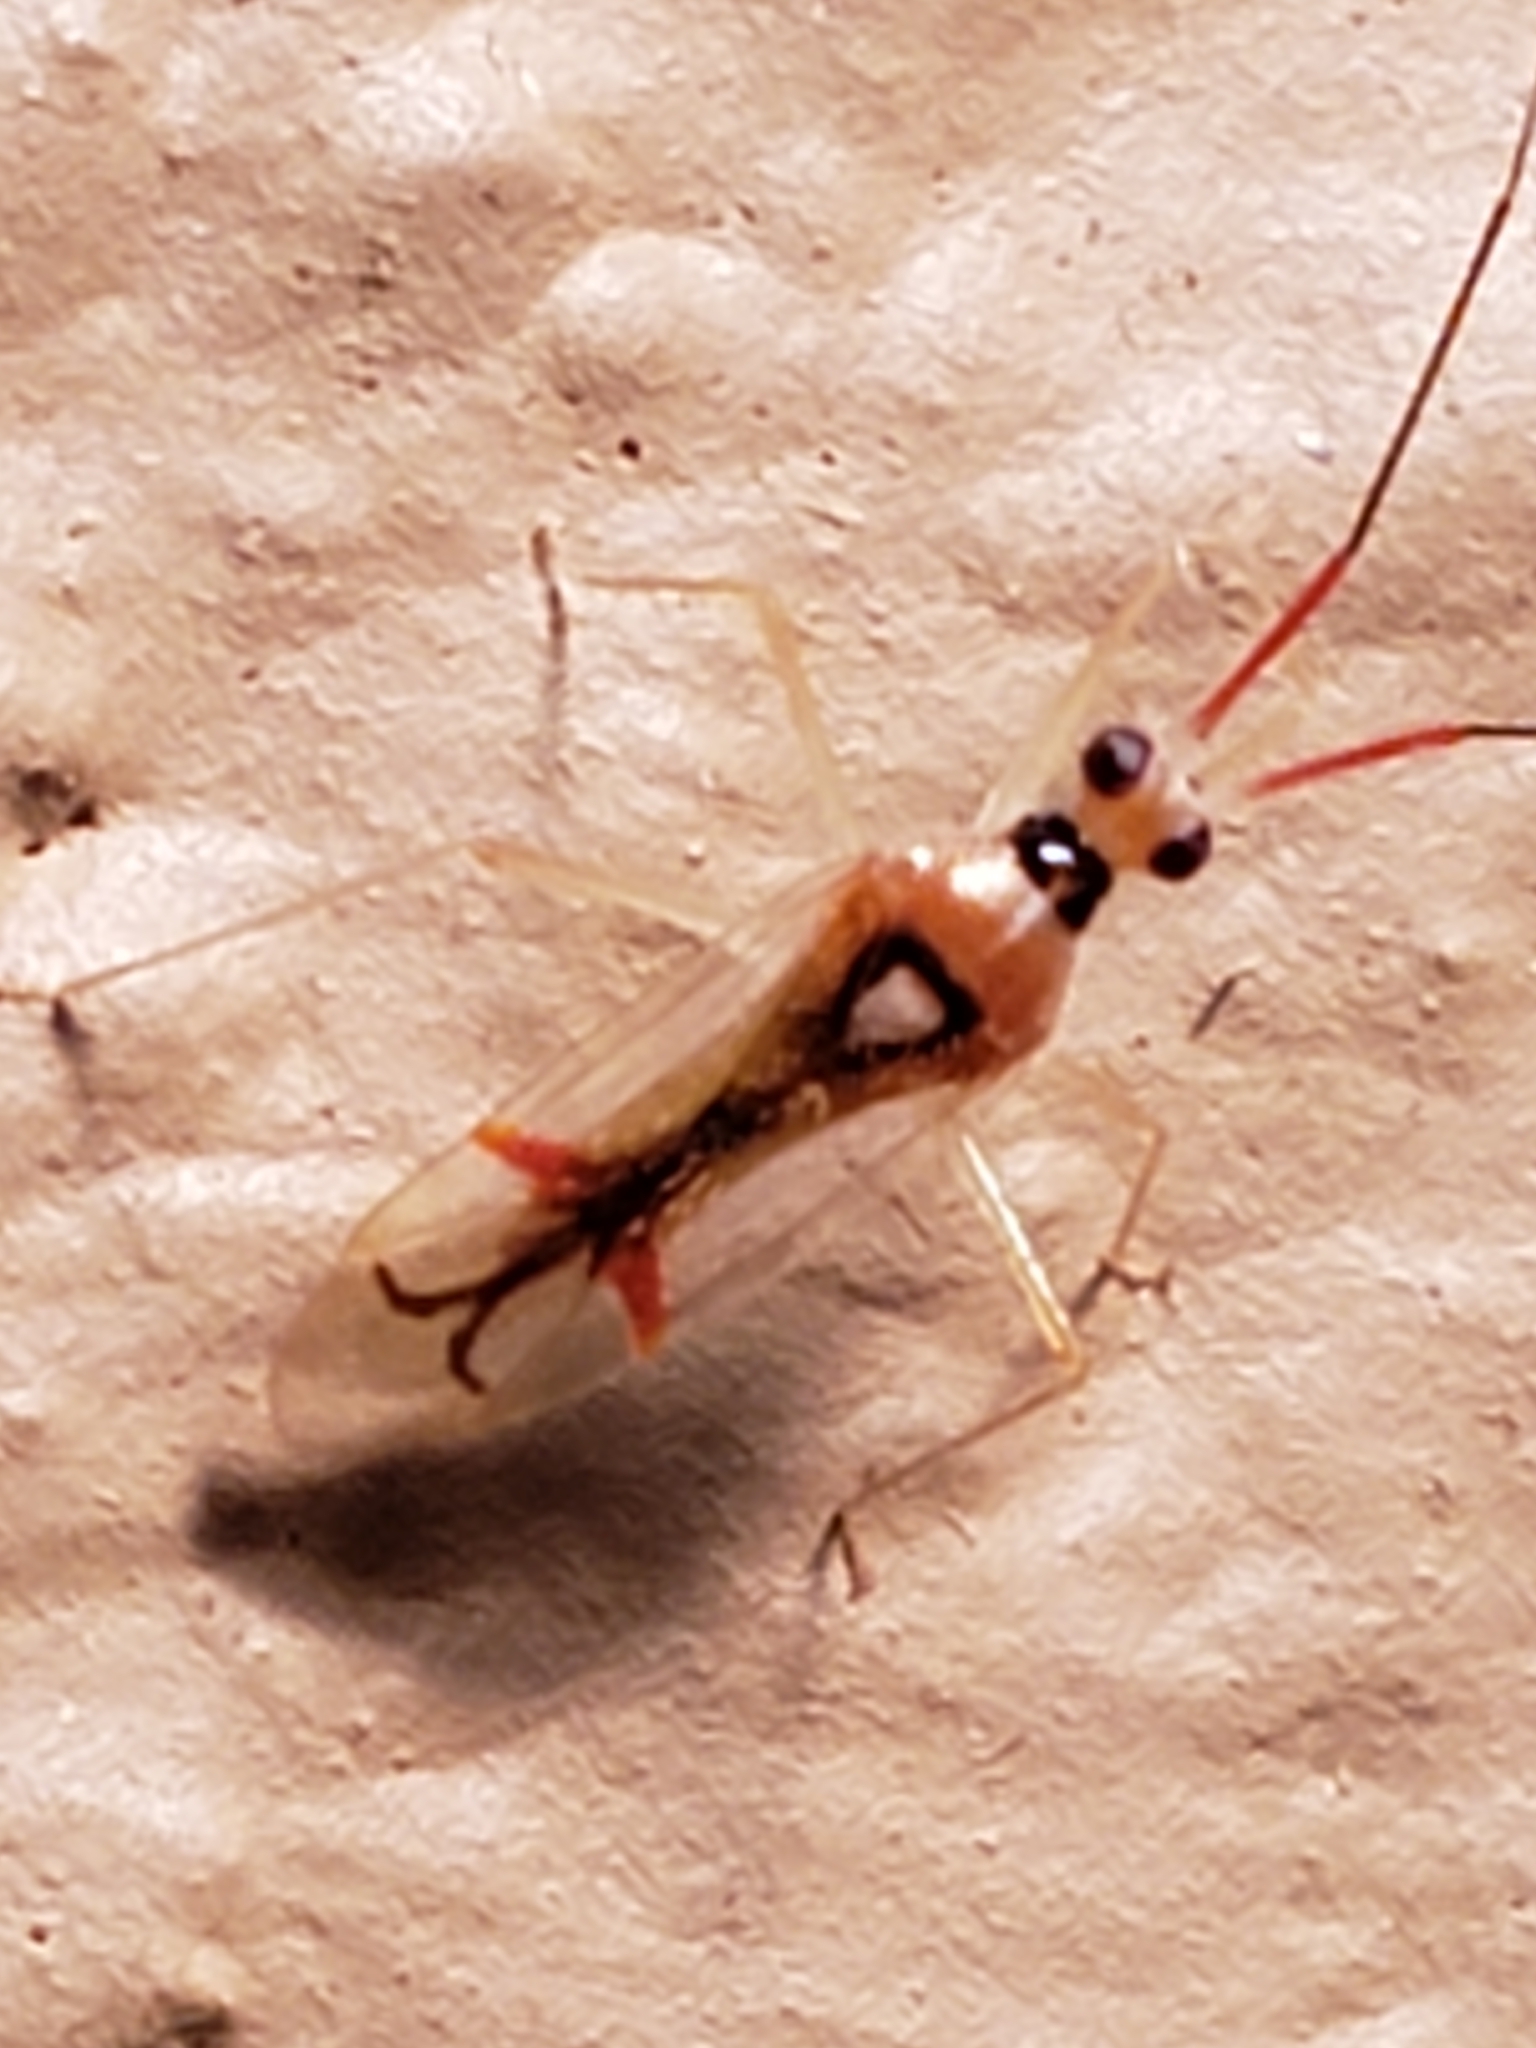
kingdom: Animalia
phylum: Arthropoda
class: Insecta
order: Hemiptera
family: Miridae
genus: Hyaliodes
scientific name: Hyaliodes harti
